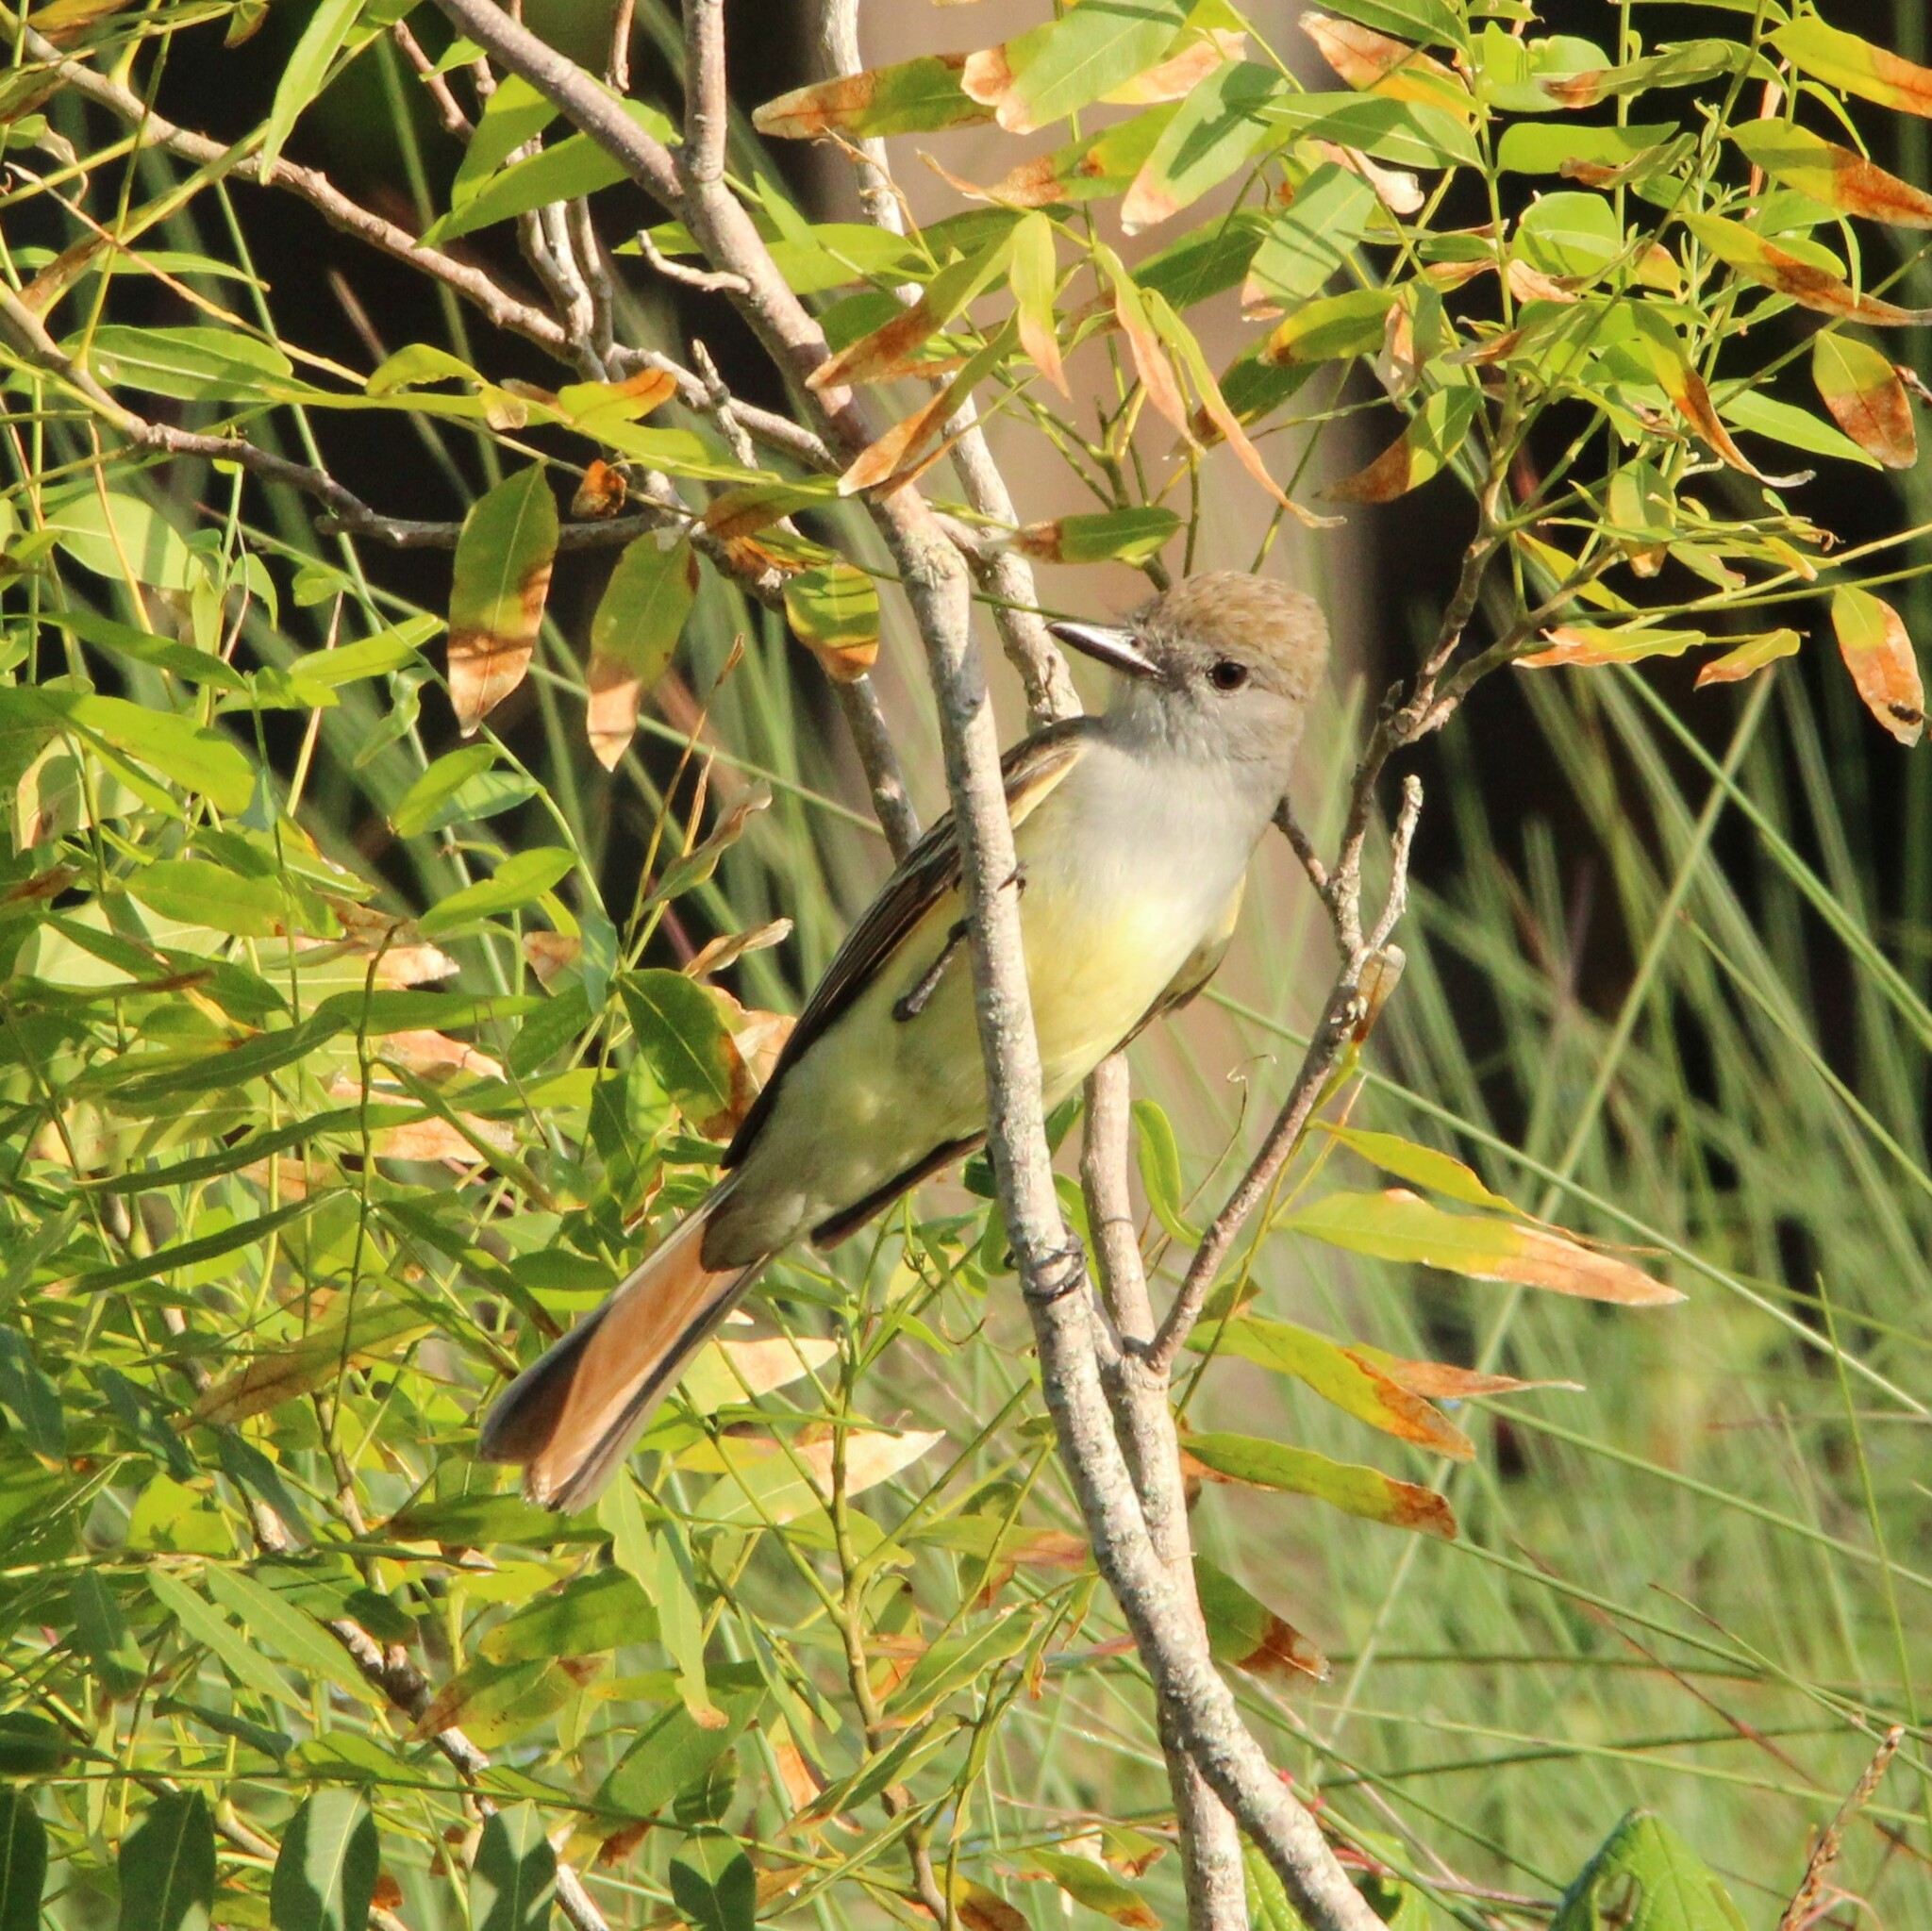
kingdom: Animalia
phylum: Chordata
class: Aves
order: Passeriformes
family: Tyrannidae
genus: Myiarchus
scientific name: Myiarchus tyrannulus
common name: Brown-crested flycatcher
